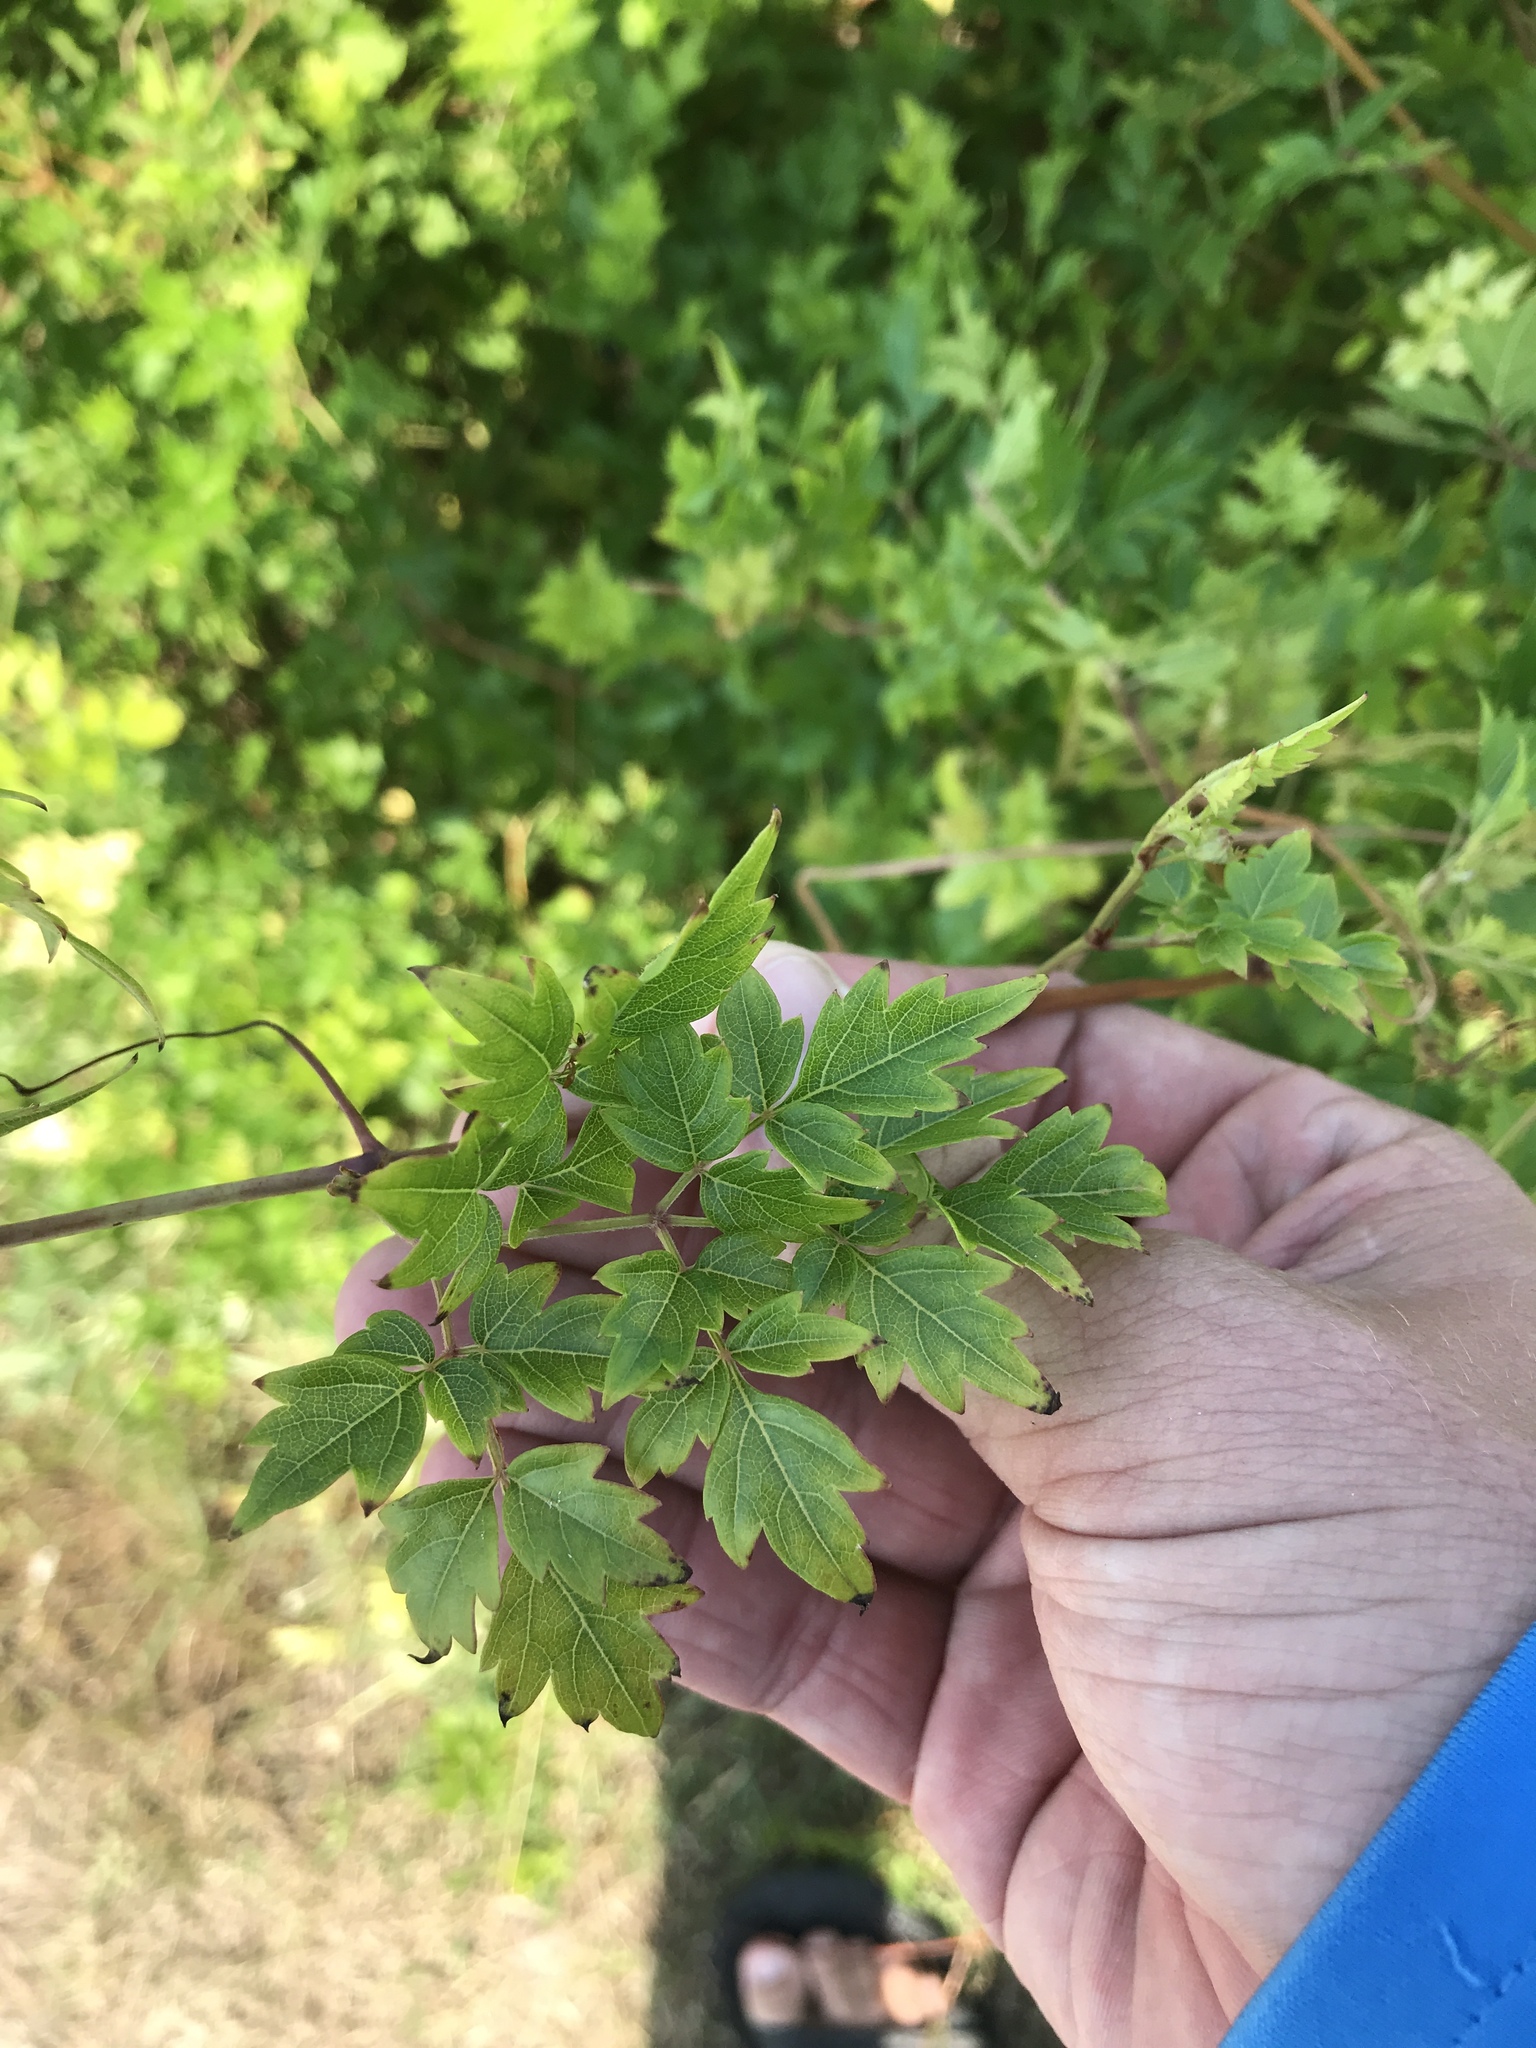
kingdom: Plantae
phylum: Tracheophyta
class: Magnoliopsida
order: Vitales
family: Vitaceae
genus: Nekemias
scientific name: Nekemias arborea
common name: Peppervine
